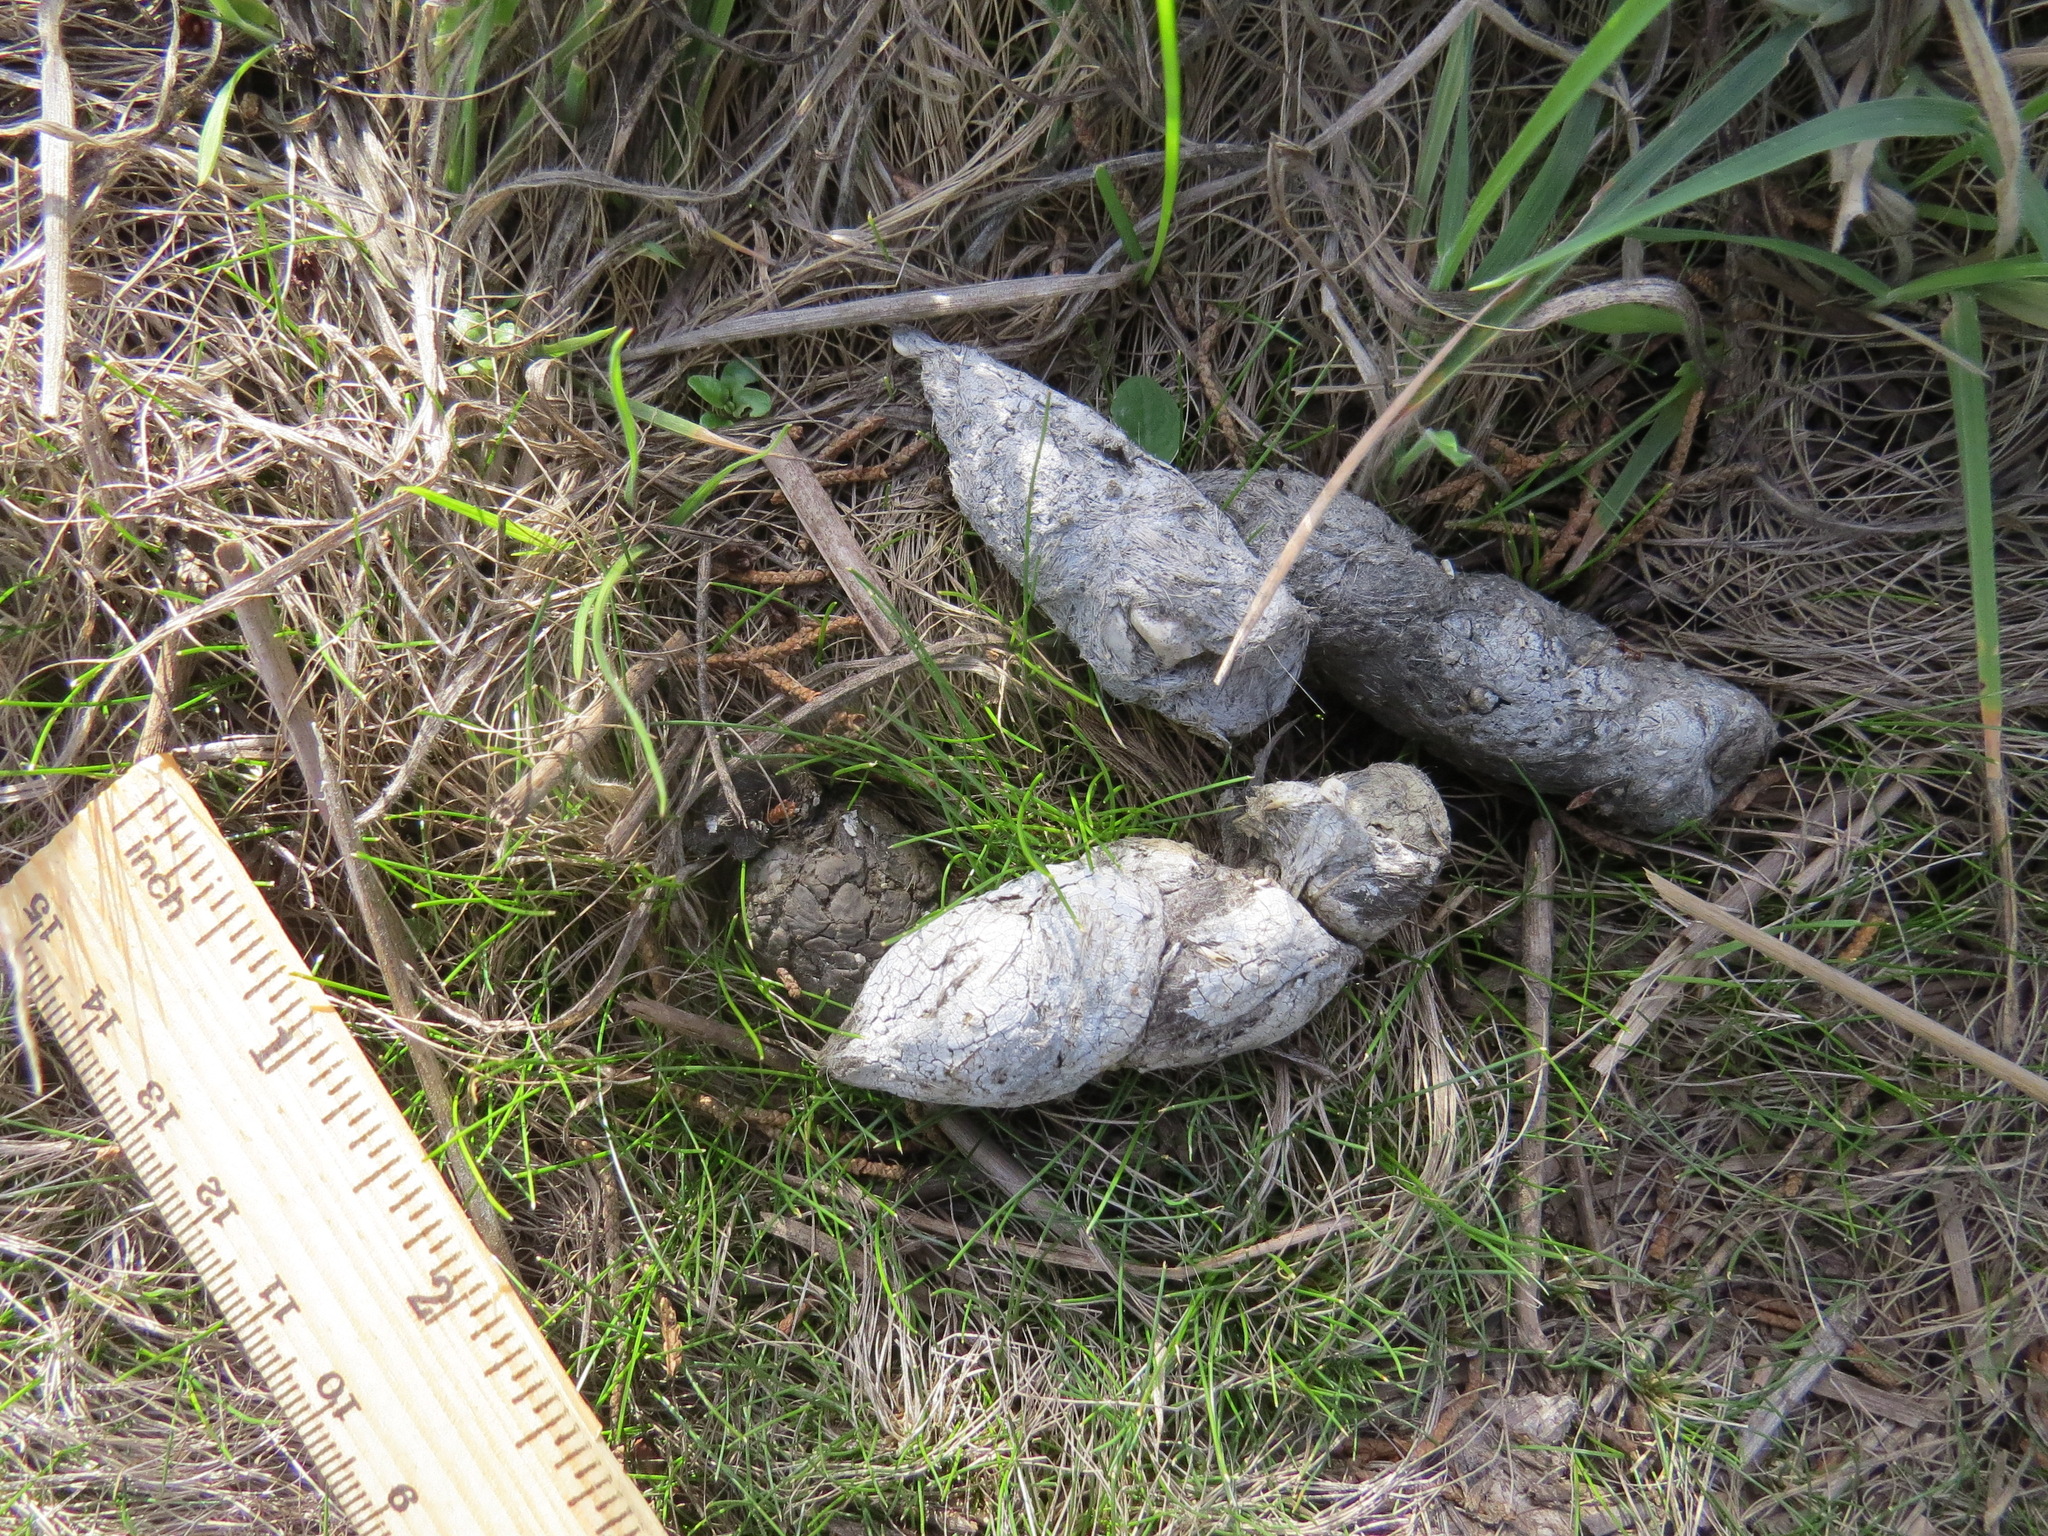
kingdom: Animalia
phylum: Chordata
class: Mammalia
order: Carnivora
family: Felidae
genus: Lynx
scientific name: Lynx rufus
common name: Bobcat
